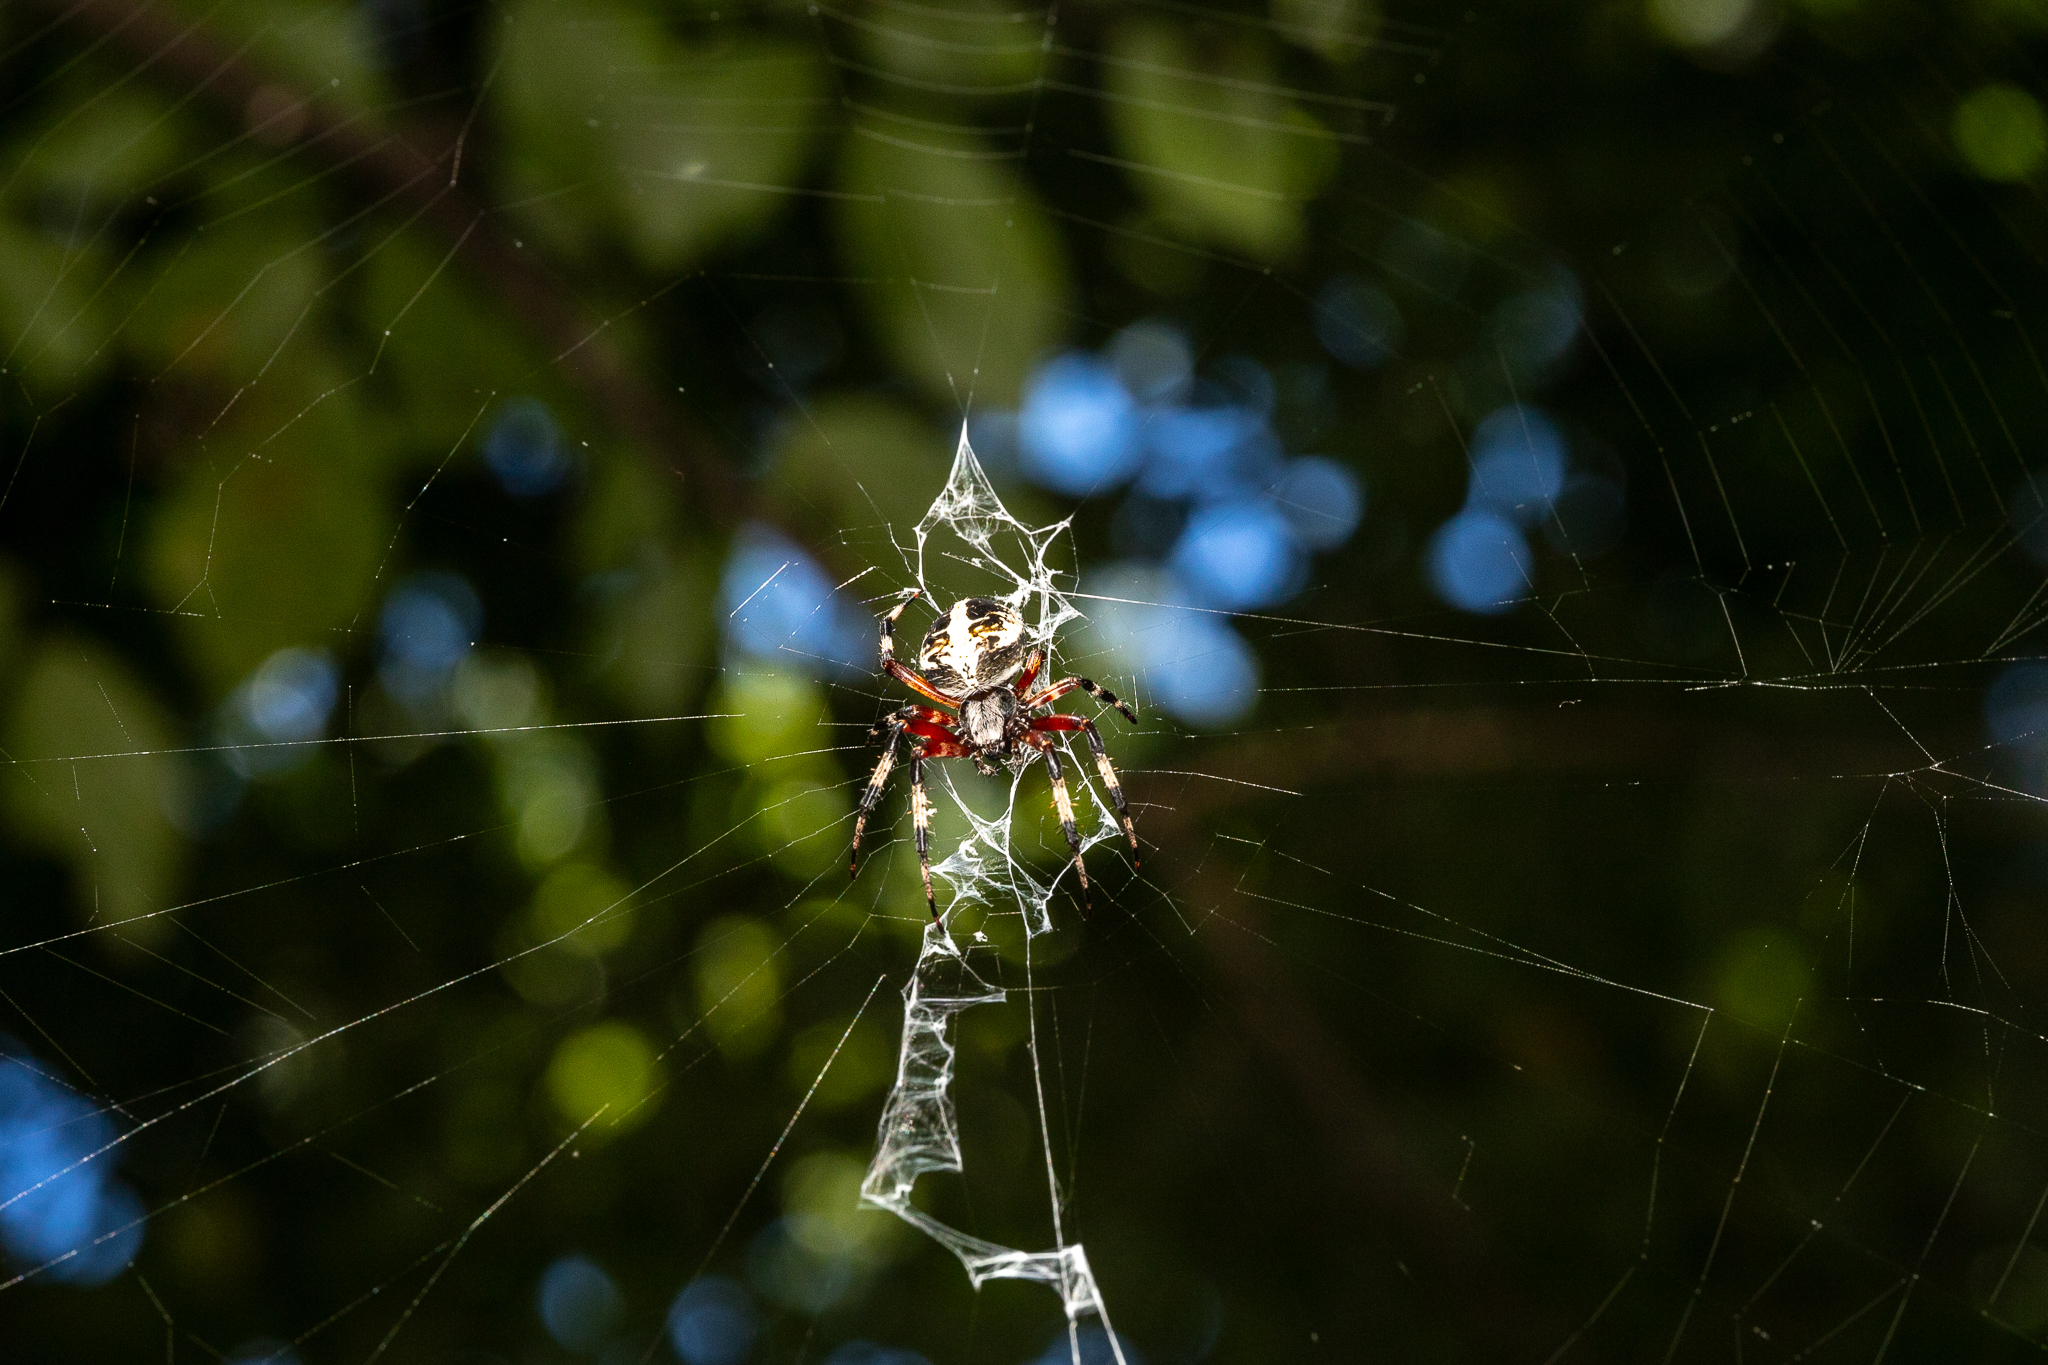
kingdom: Animalia
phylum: Arthropoda
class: Arachnida
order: Araneae
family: Araneidae
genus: Neoscona
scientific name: Neoscona domiciliorum
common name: Red-femured spotted orbweaver
